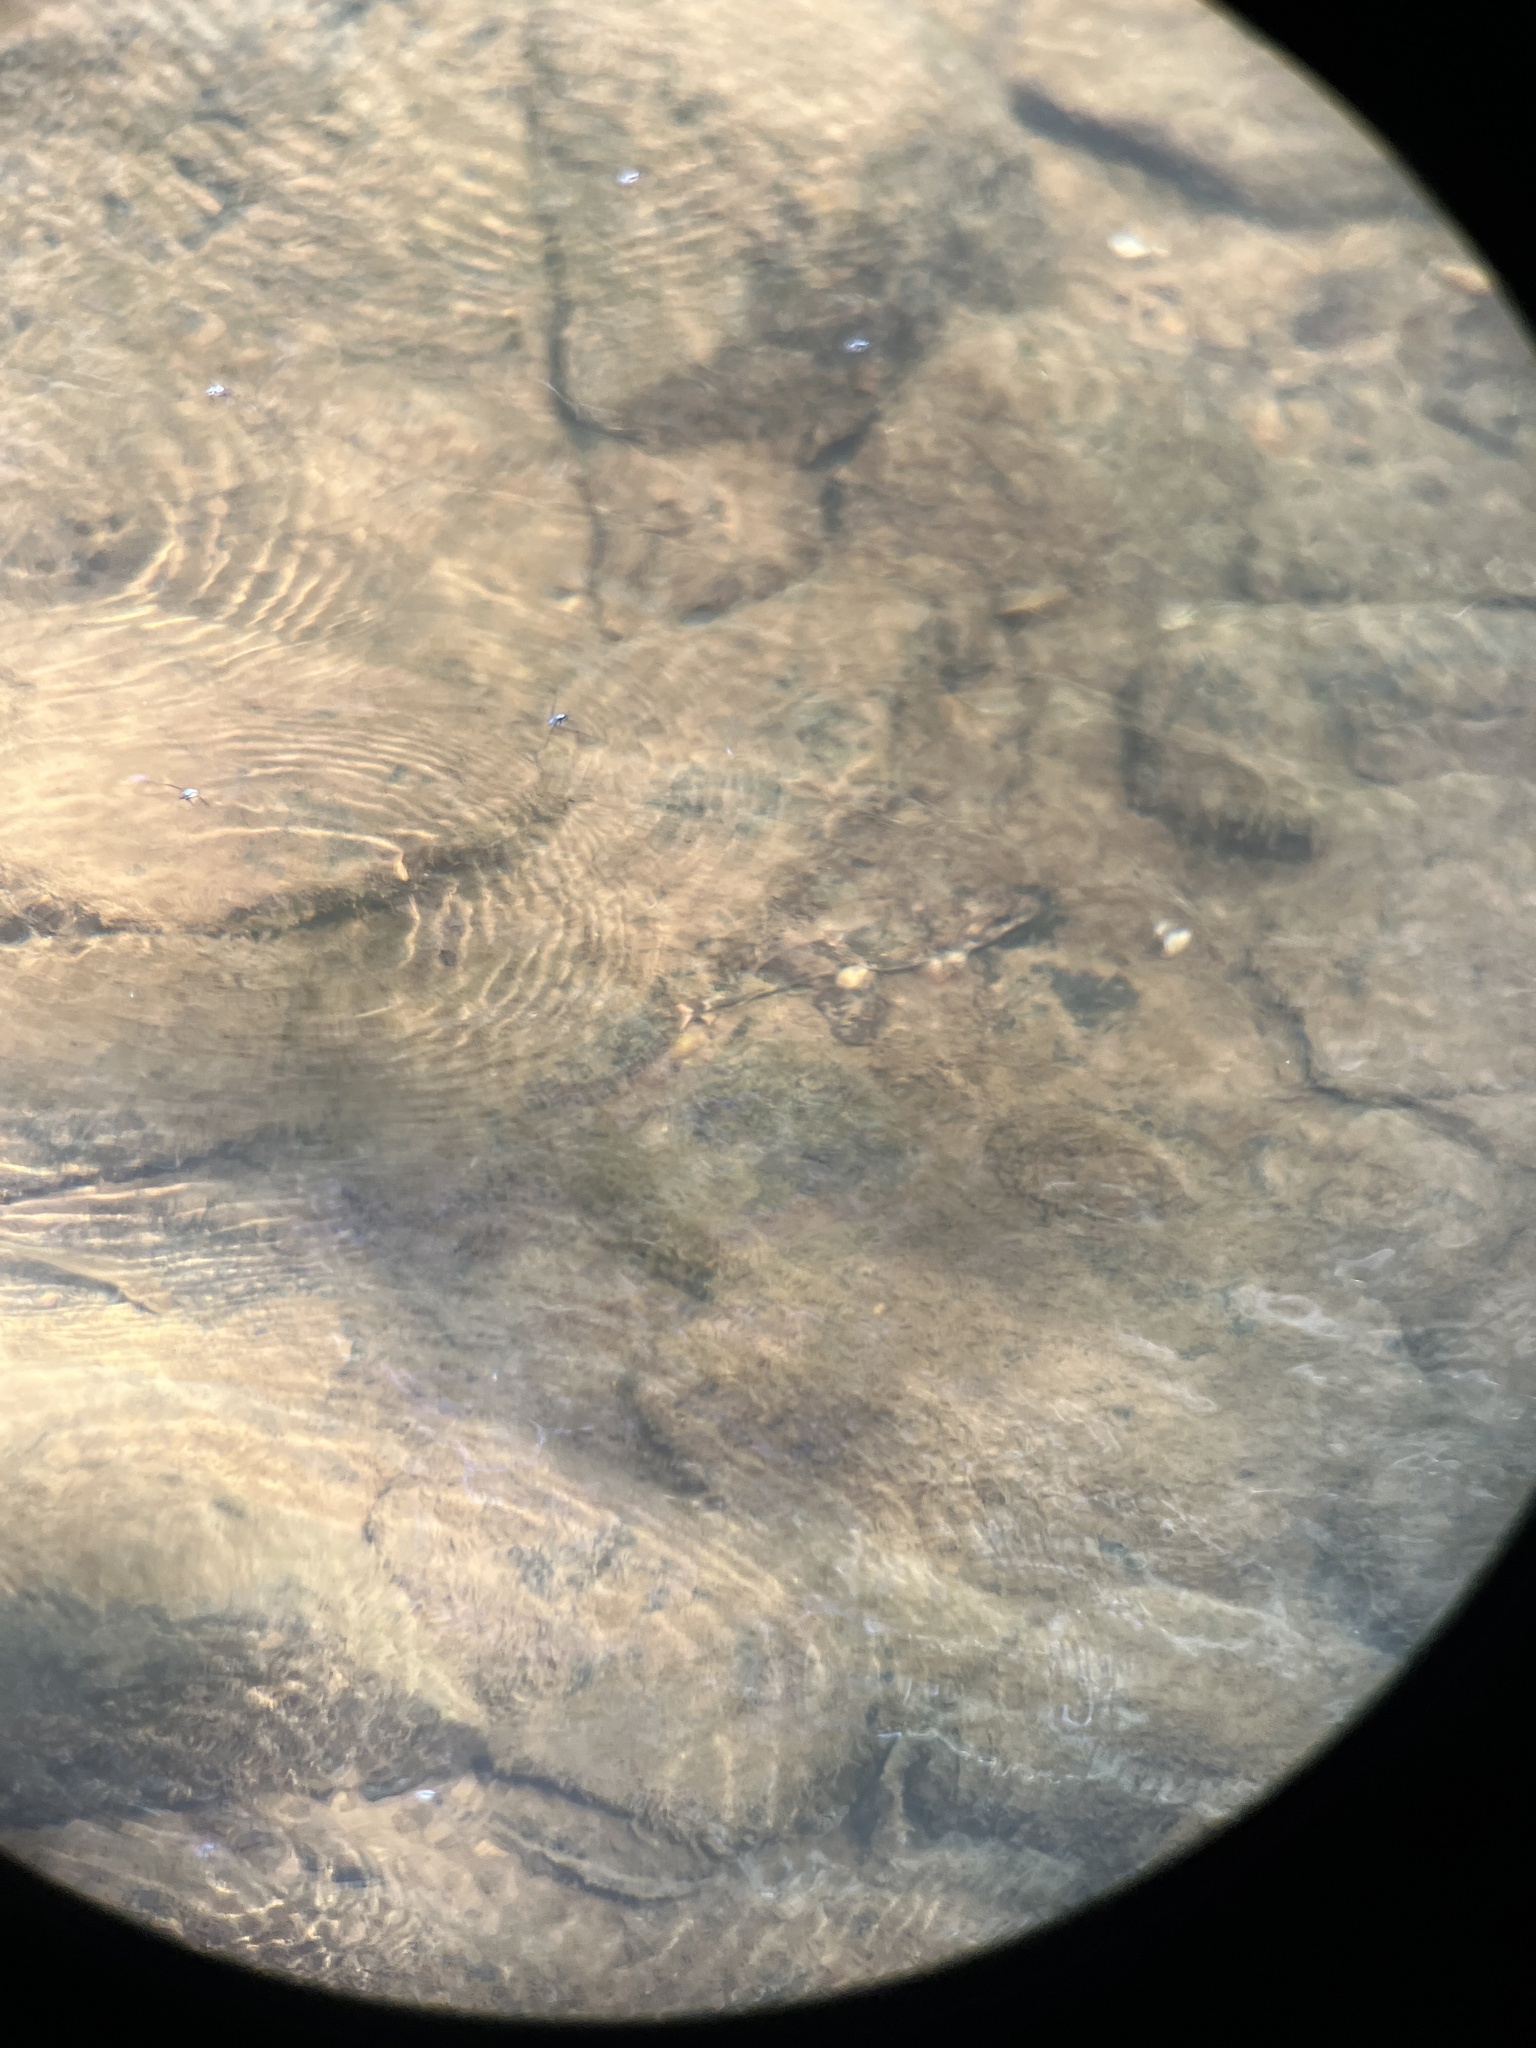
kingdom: Animalia
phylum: Chordata
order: Cypriniformes
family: Catostomidae
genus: Hypentelium
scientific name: Hypentelium nigricans
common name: Northern hog sucker
